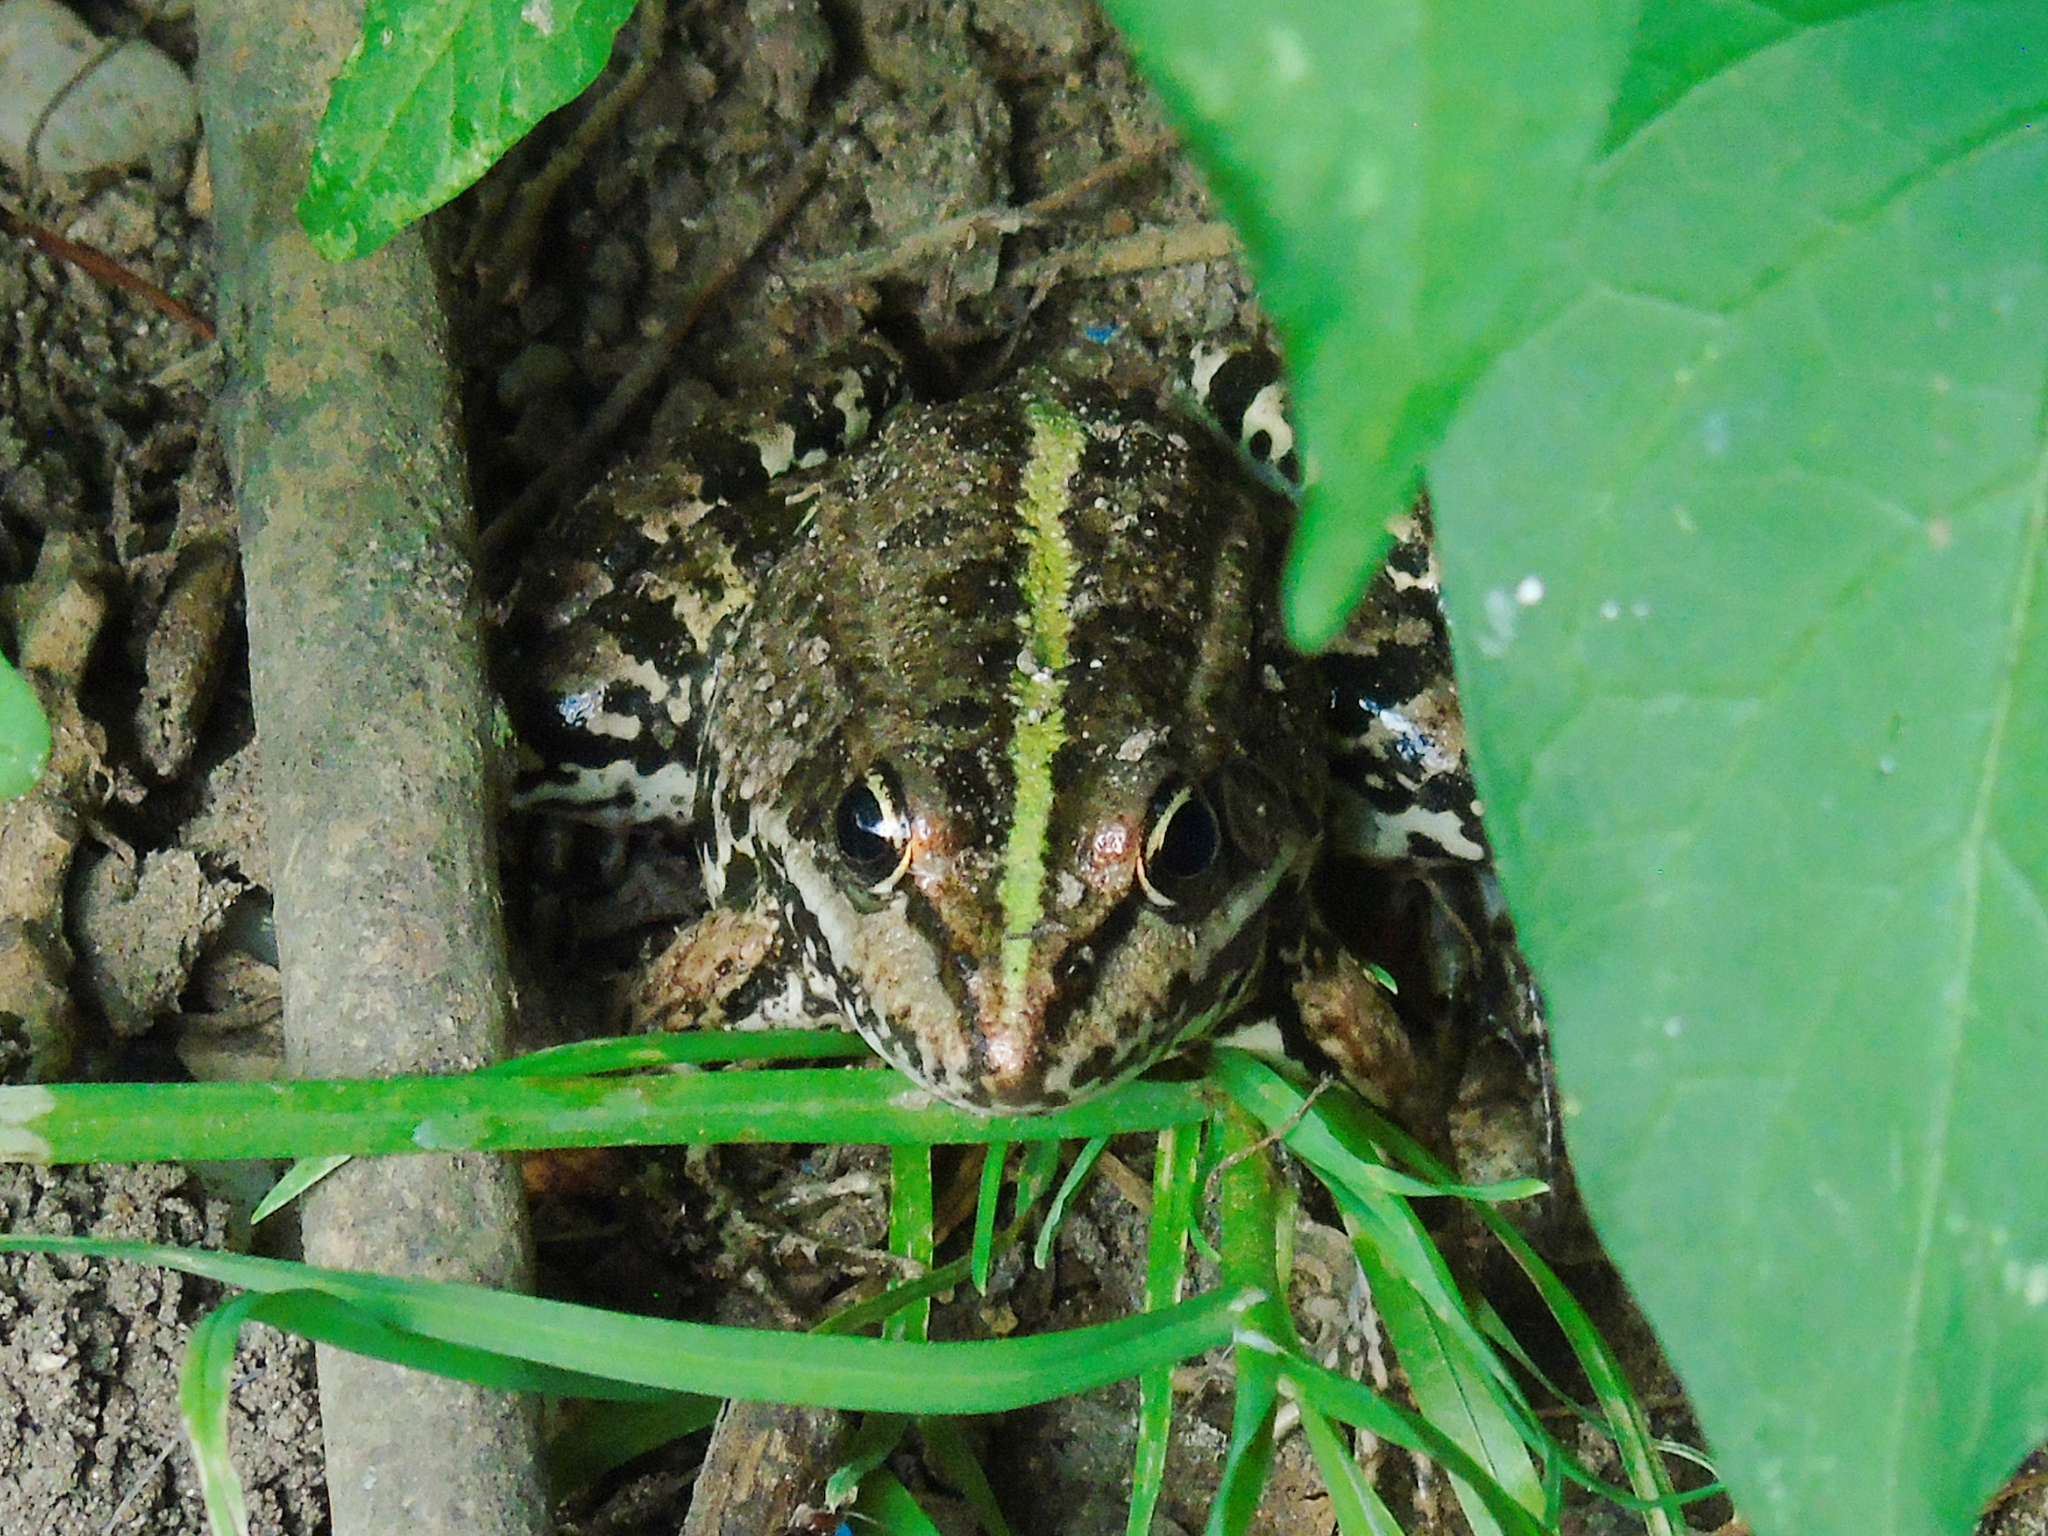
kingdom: Animalia
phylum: Chordata
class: Amphibia
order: Anura
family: Ranidae
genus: Pelophylax
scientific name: Pelophylax ridibundus
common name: Marsh frog
